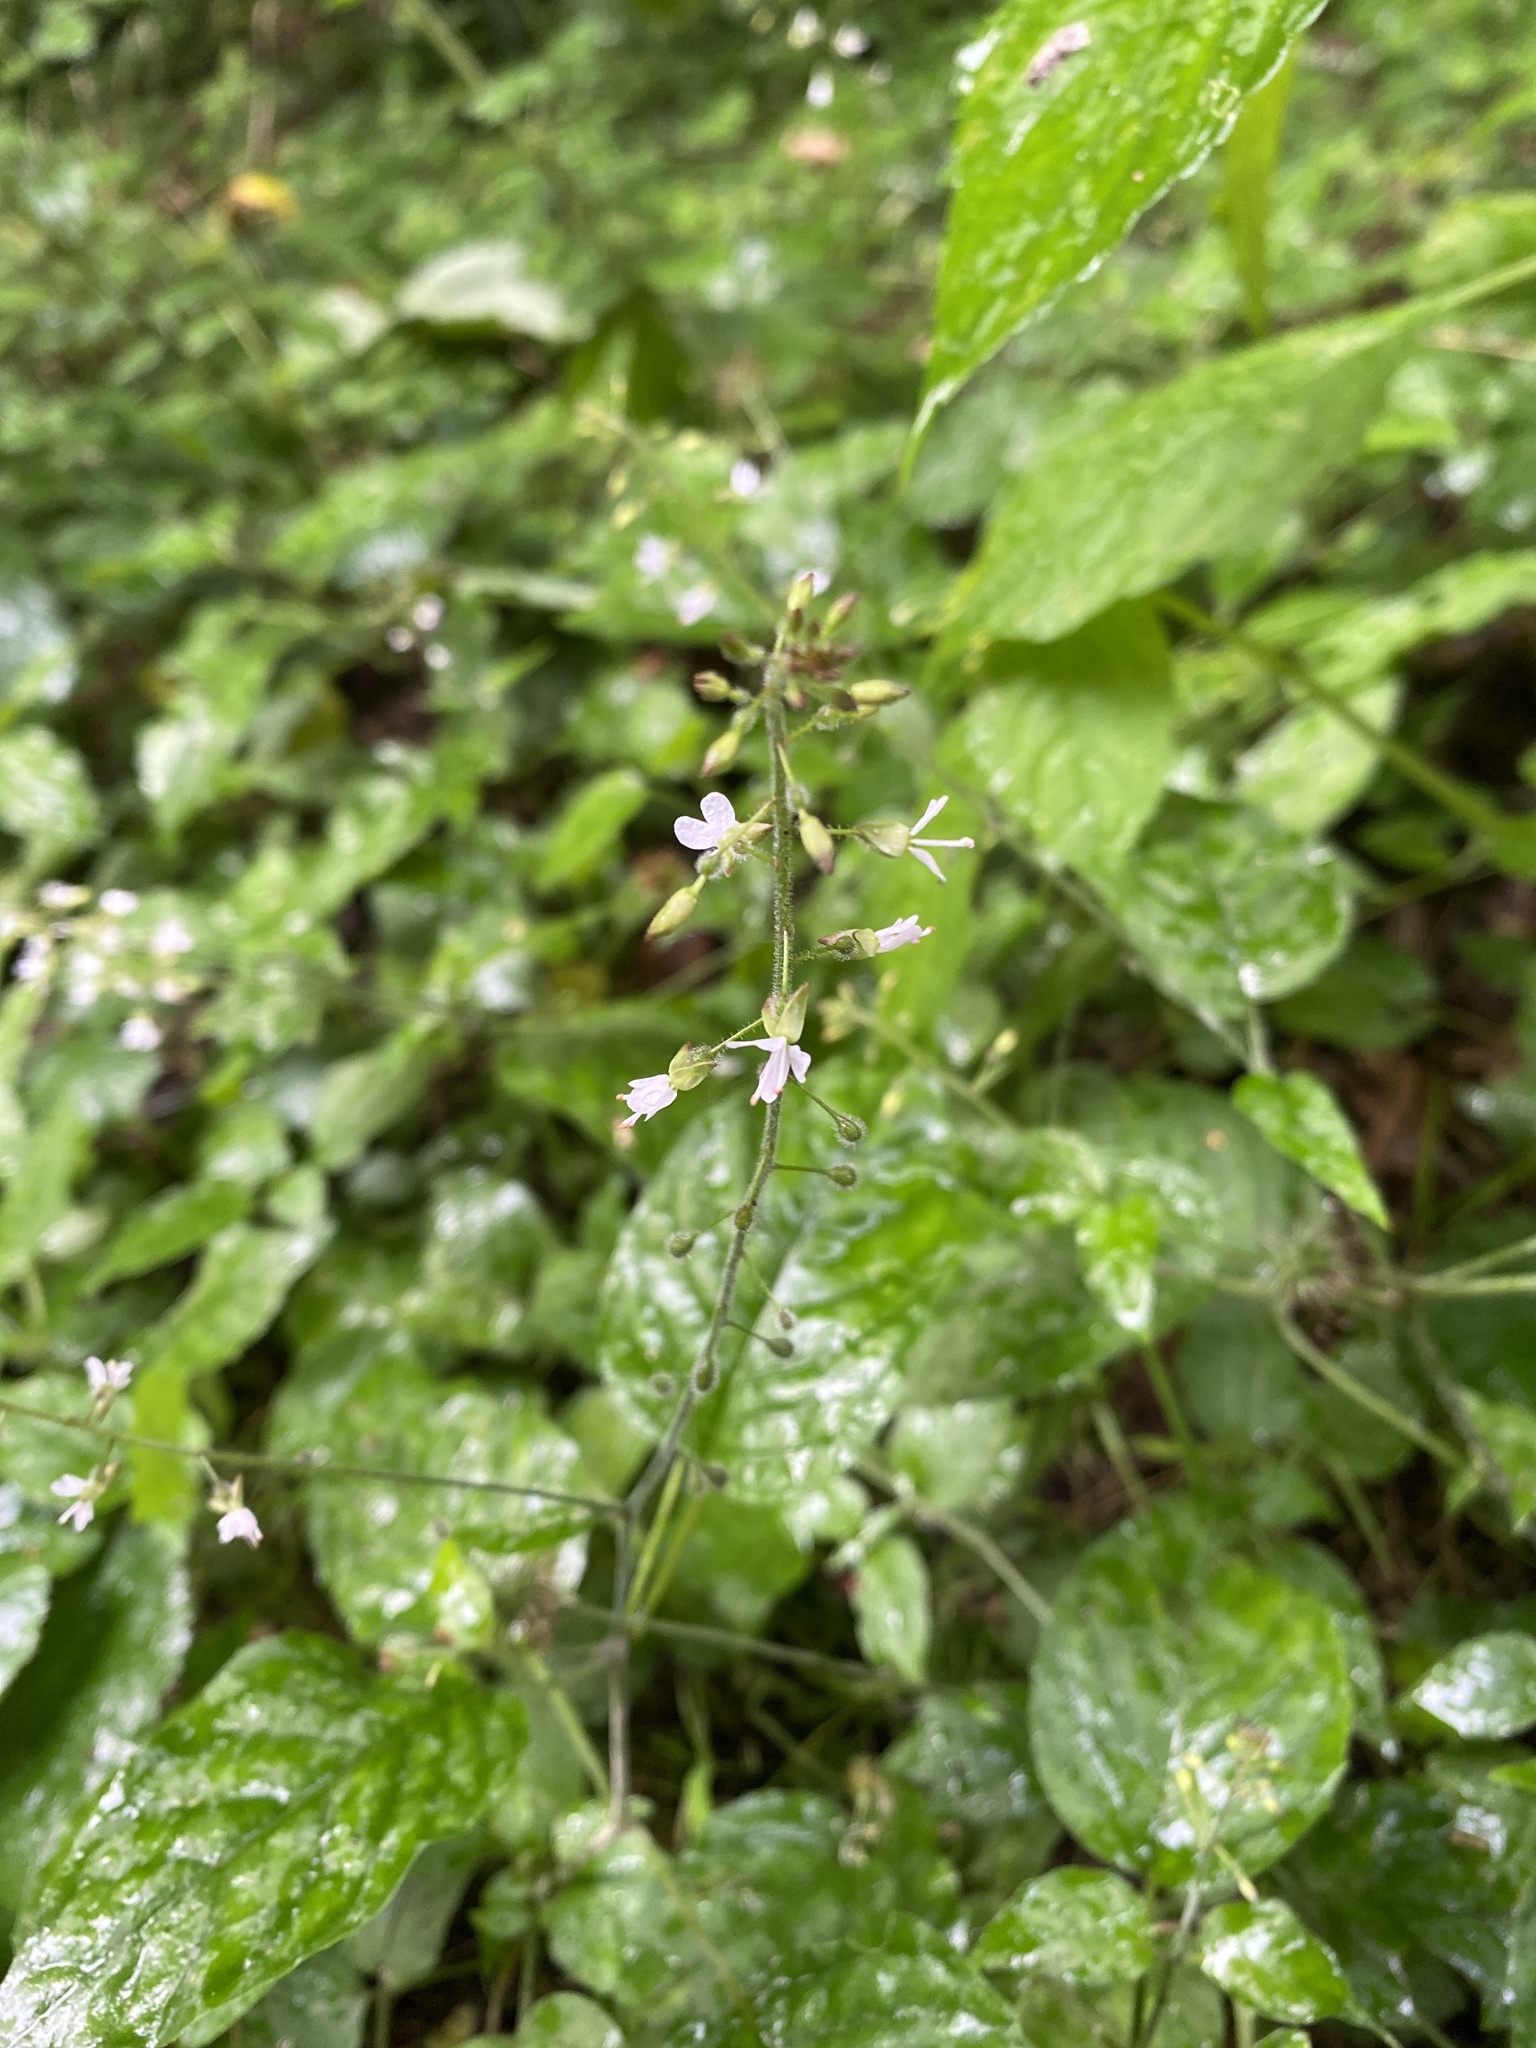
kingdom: Plantae
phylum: Tracheophyta
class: Magnoliopsida
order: Myrtales
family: Onagraceae
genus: Circaea
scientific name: Circaea lutetiana
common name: Enchanter's-nightshade
